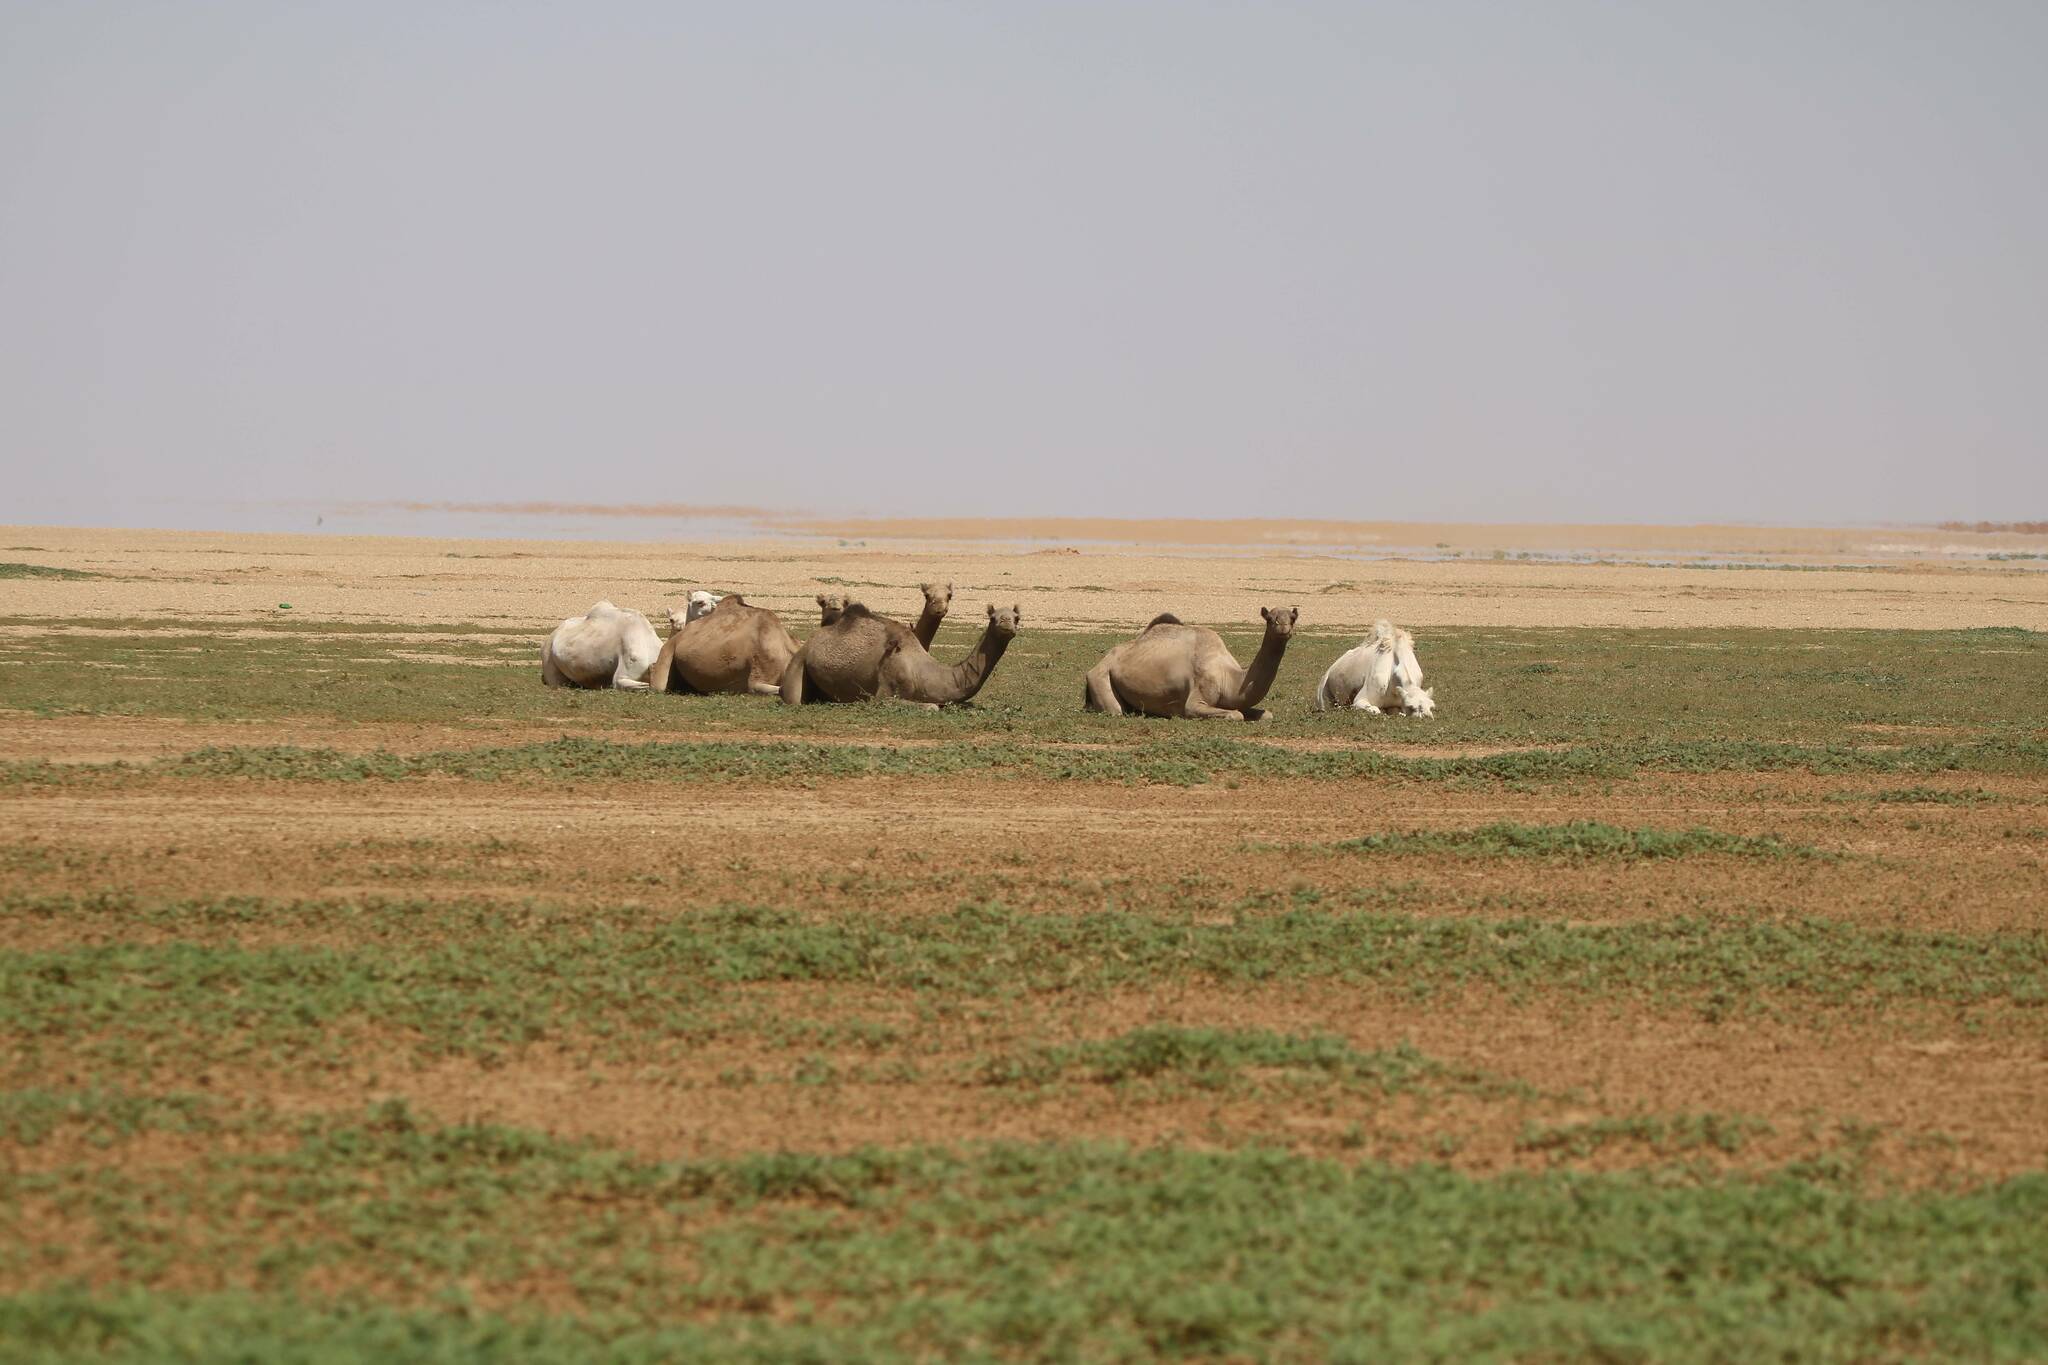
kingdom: Animalia
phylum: Chordata
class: Mammalia
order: Artiodactyla
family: Camelidae
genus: Camelus
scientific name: Camelus dromedarius
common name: One-humped camel
